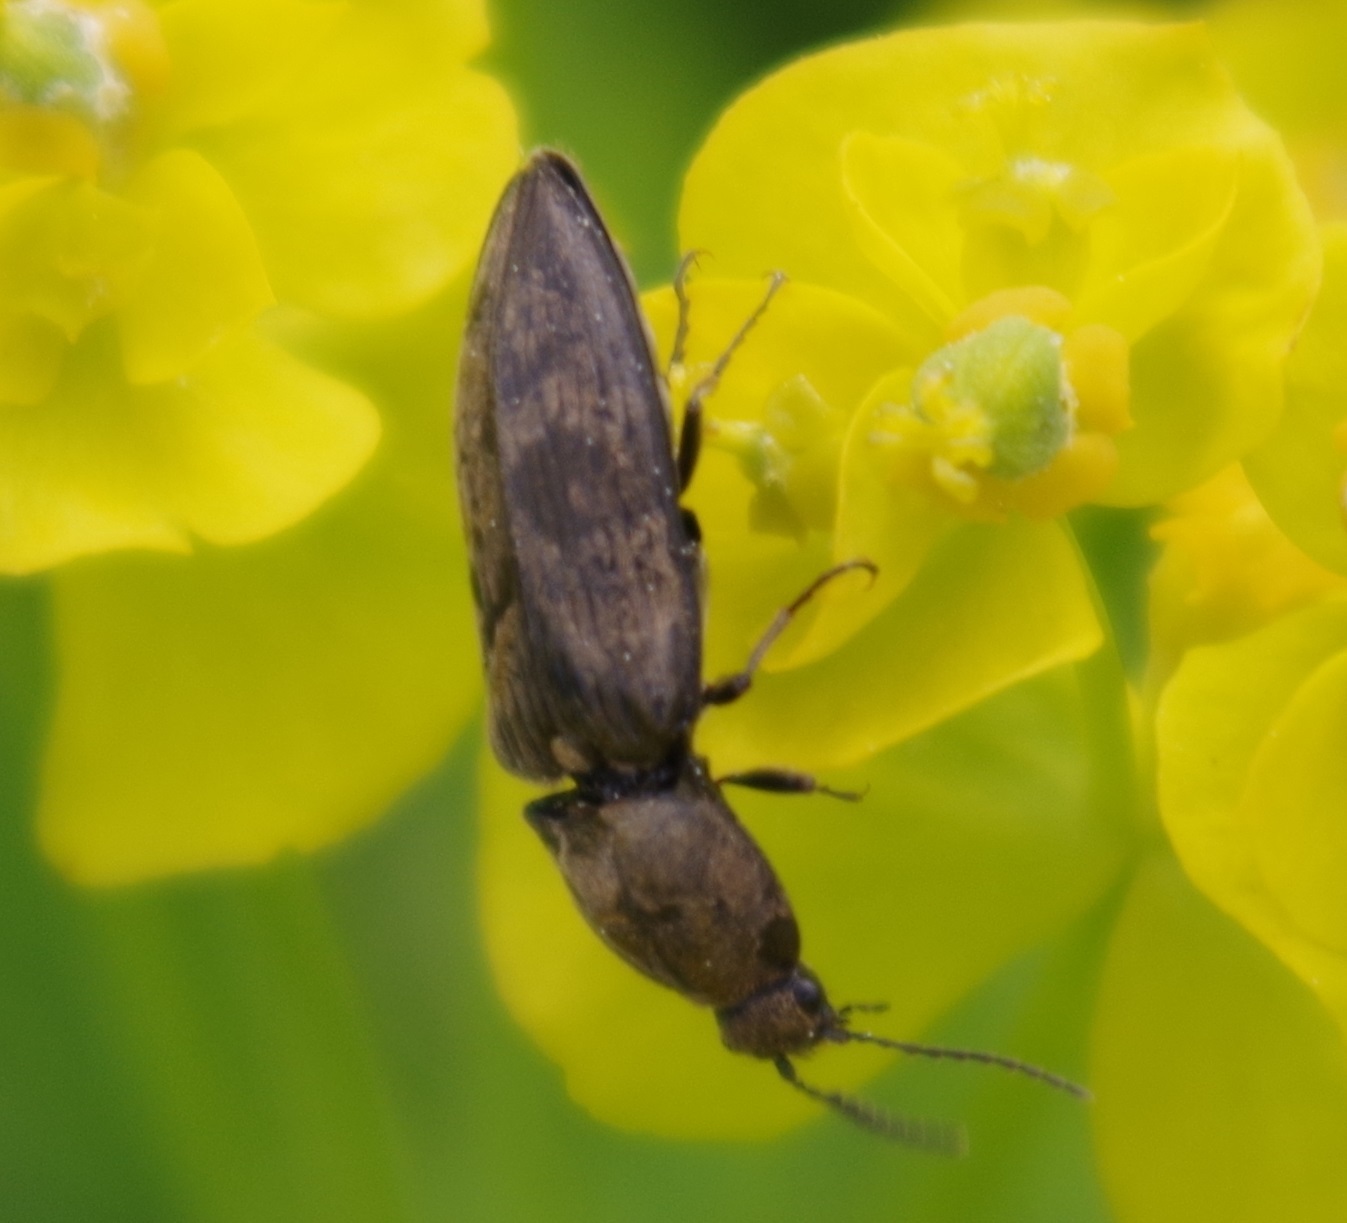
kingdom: Animalia
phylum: Arthropoda
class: Insecta
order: Coleoptera
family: Elateridae
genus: Prosternon
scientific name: Prosternon tessellatum
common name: Chequered click beetle
